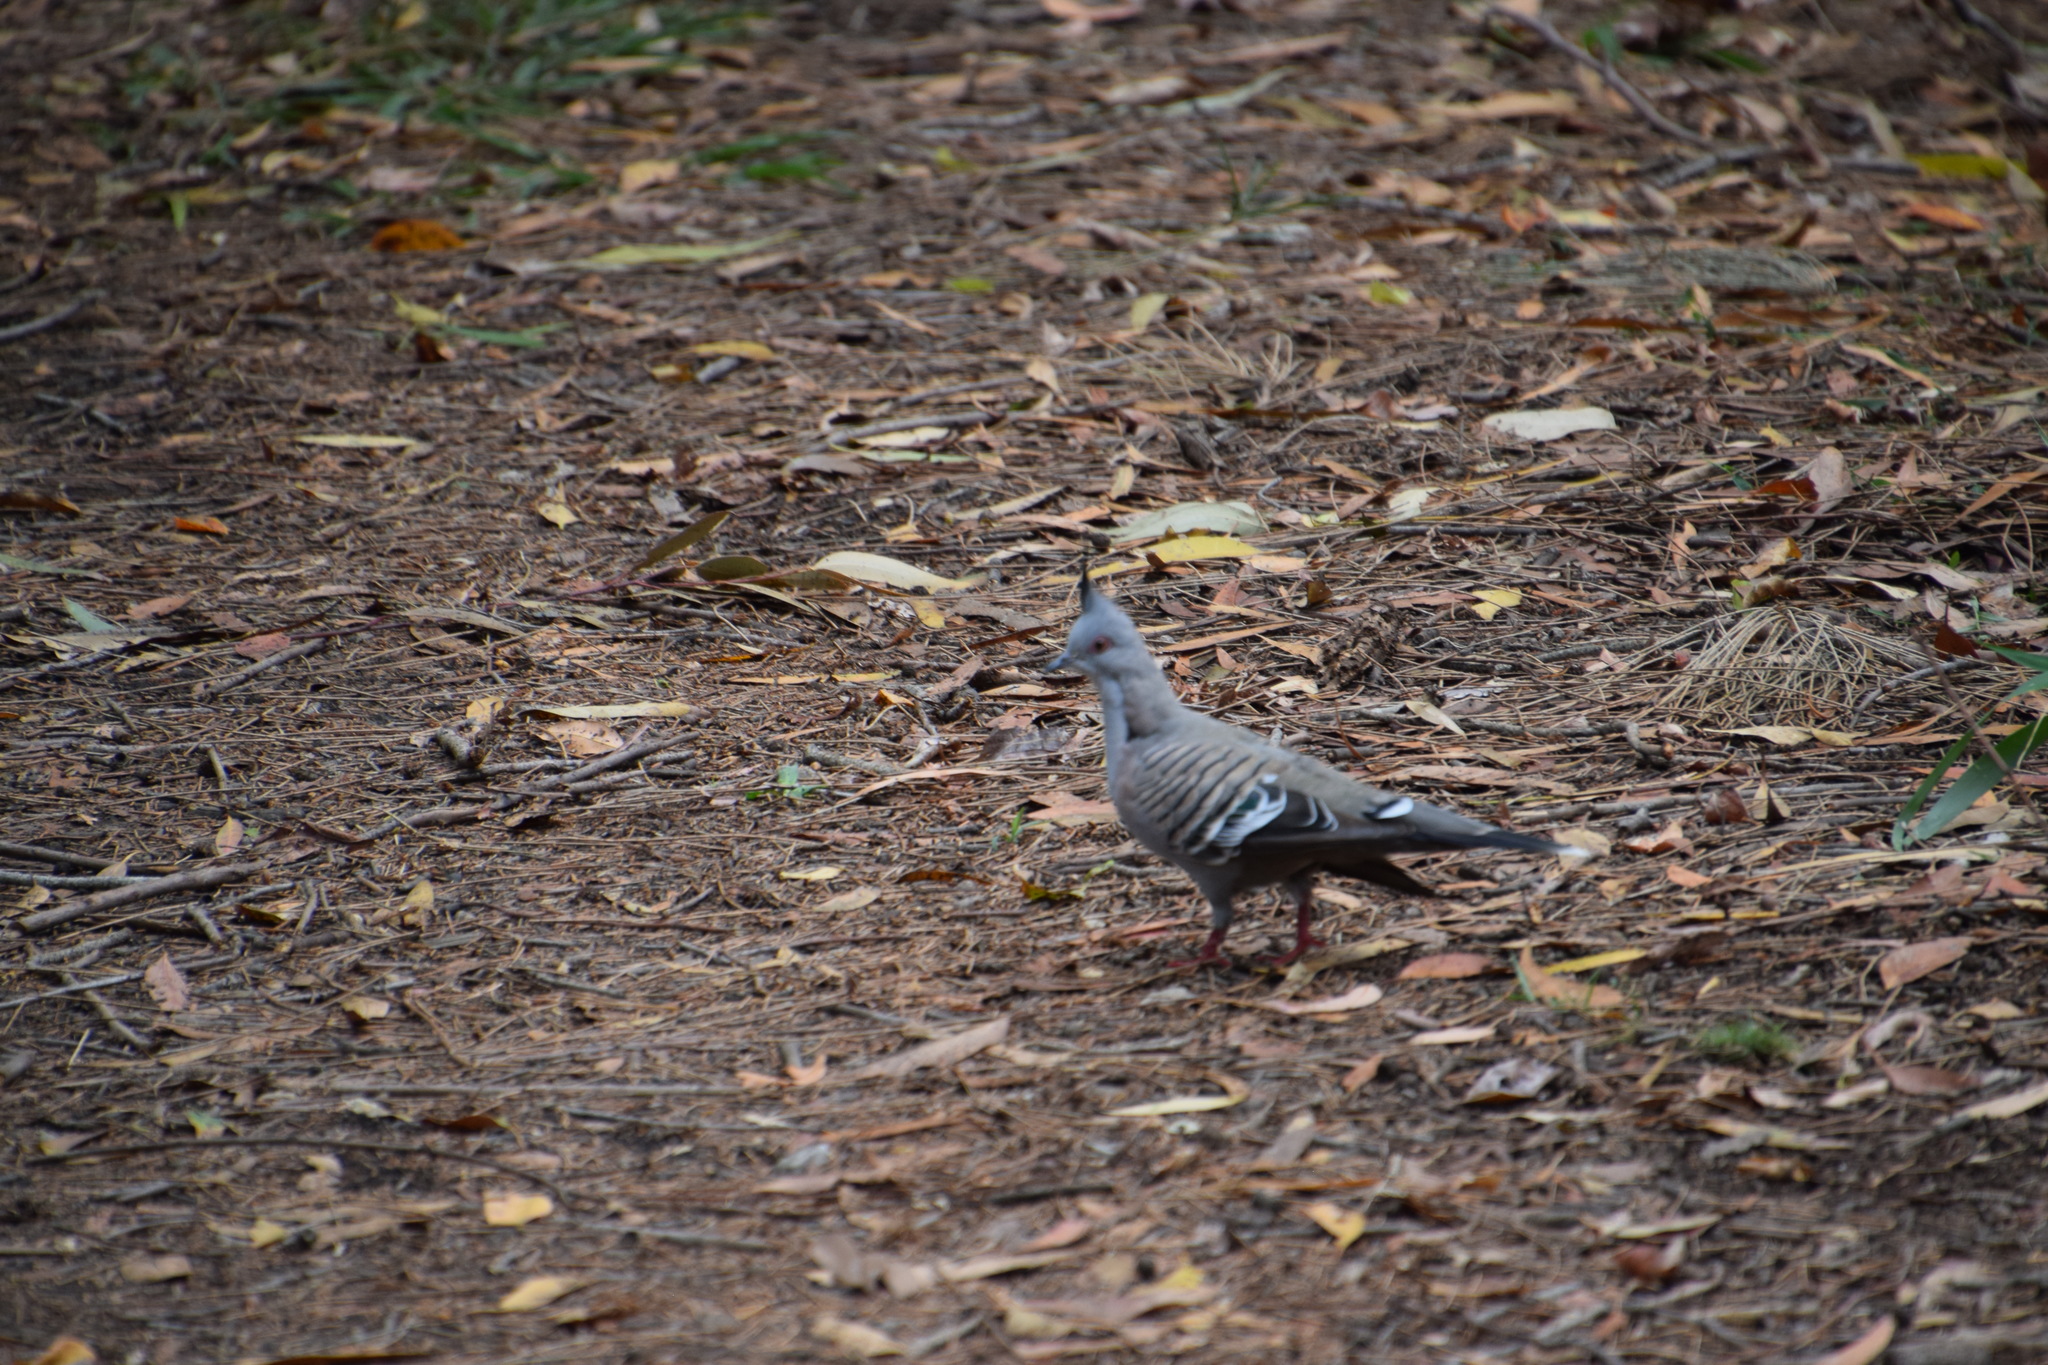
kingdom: Animalia
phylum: Chordata
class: Aves
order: Columbiformes
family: Columbidae
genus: Ocyphaps
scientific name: Ocyphaps lophotes
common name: Crested pigeon
